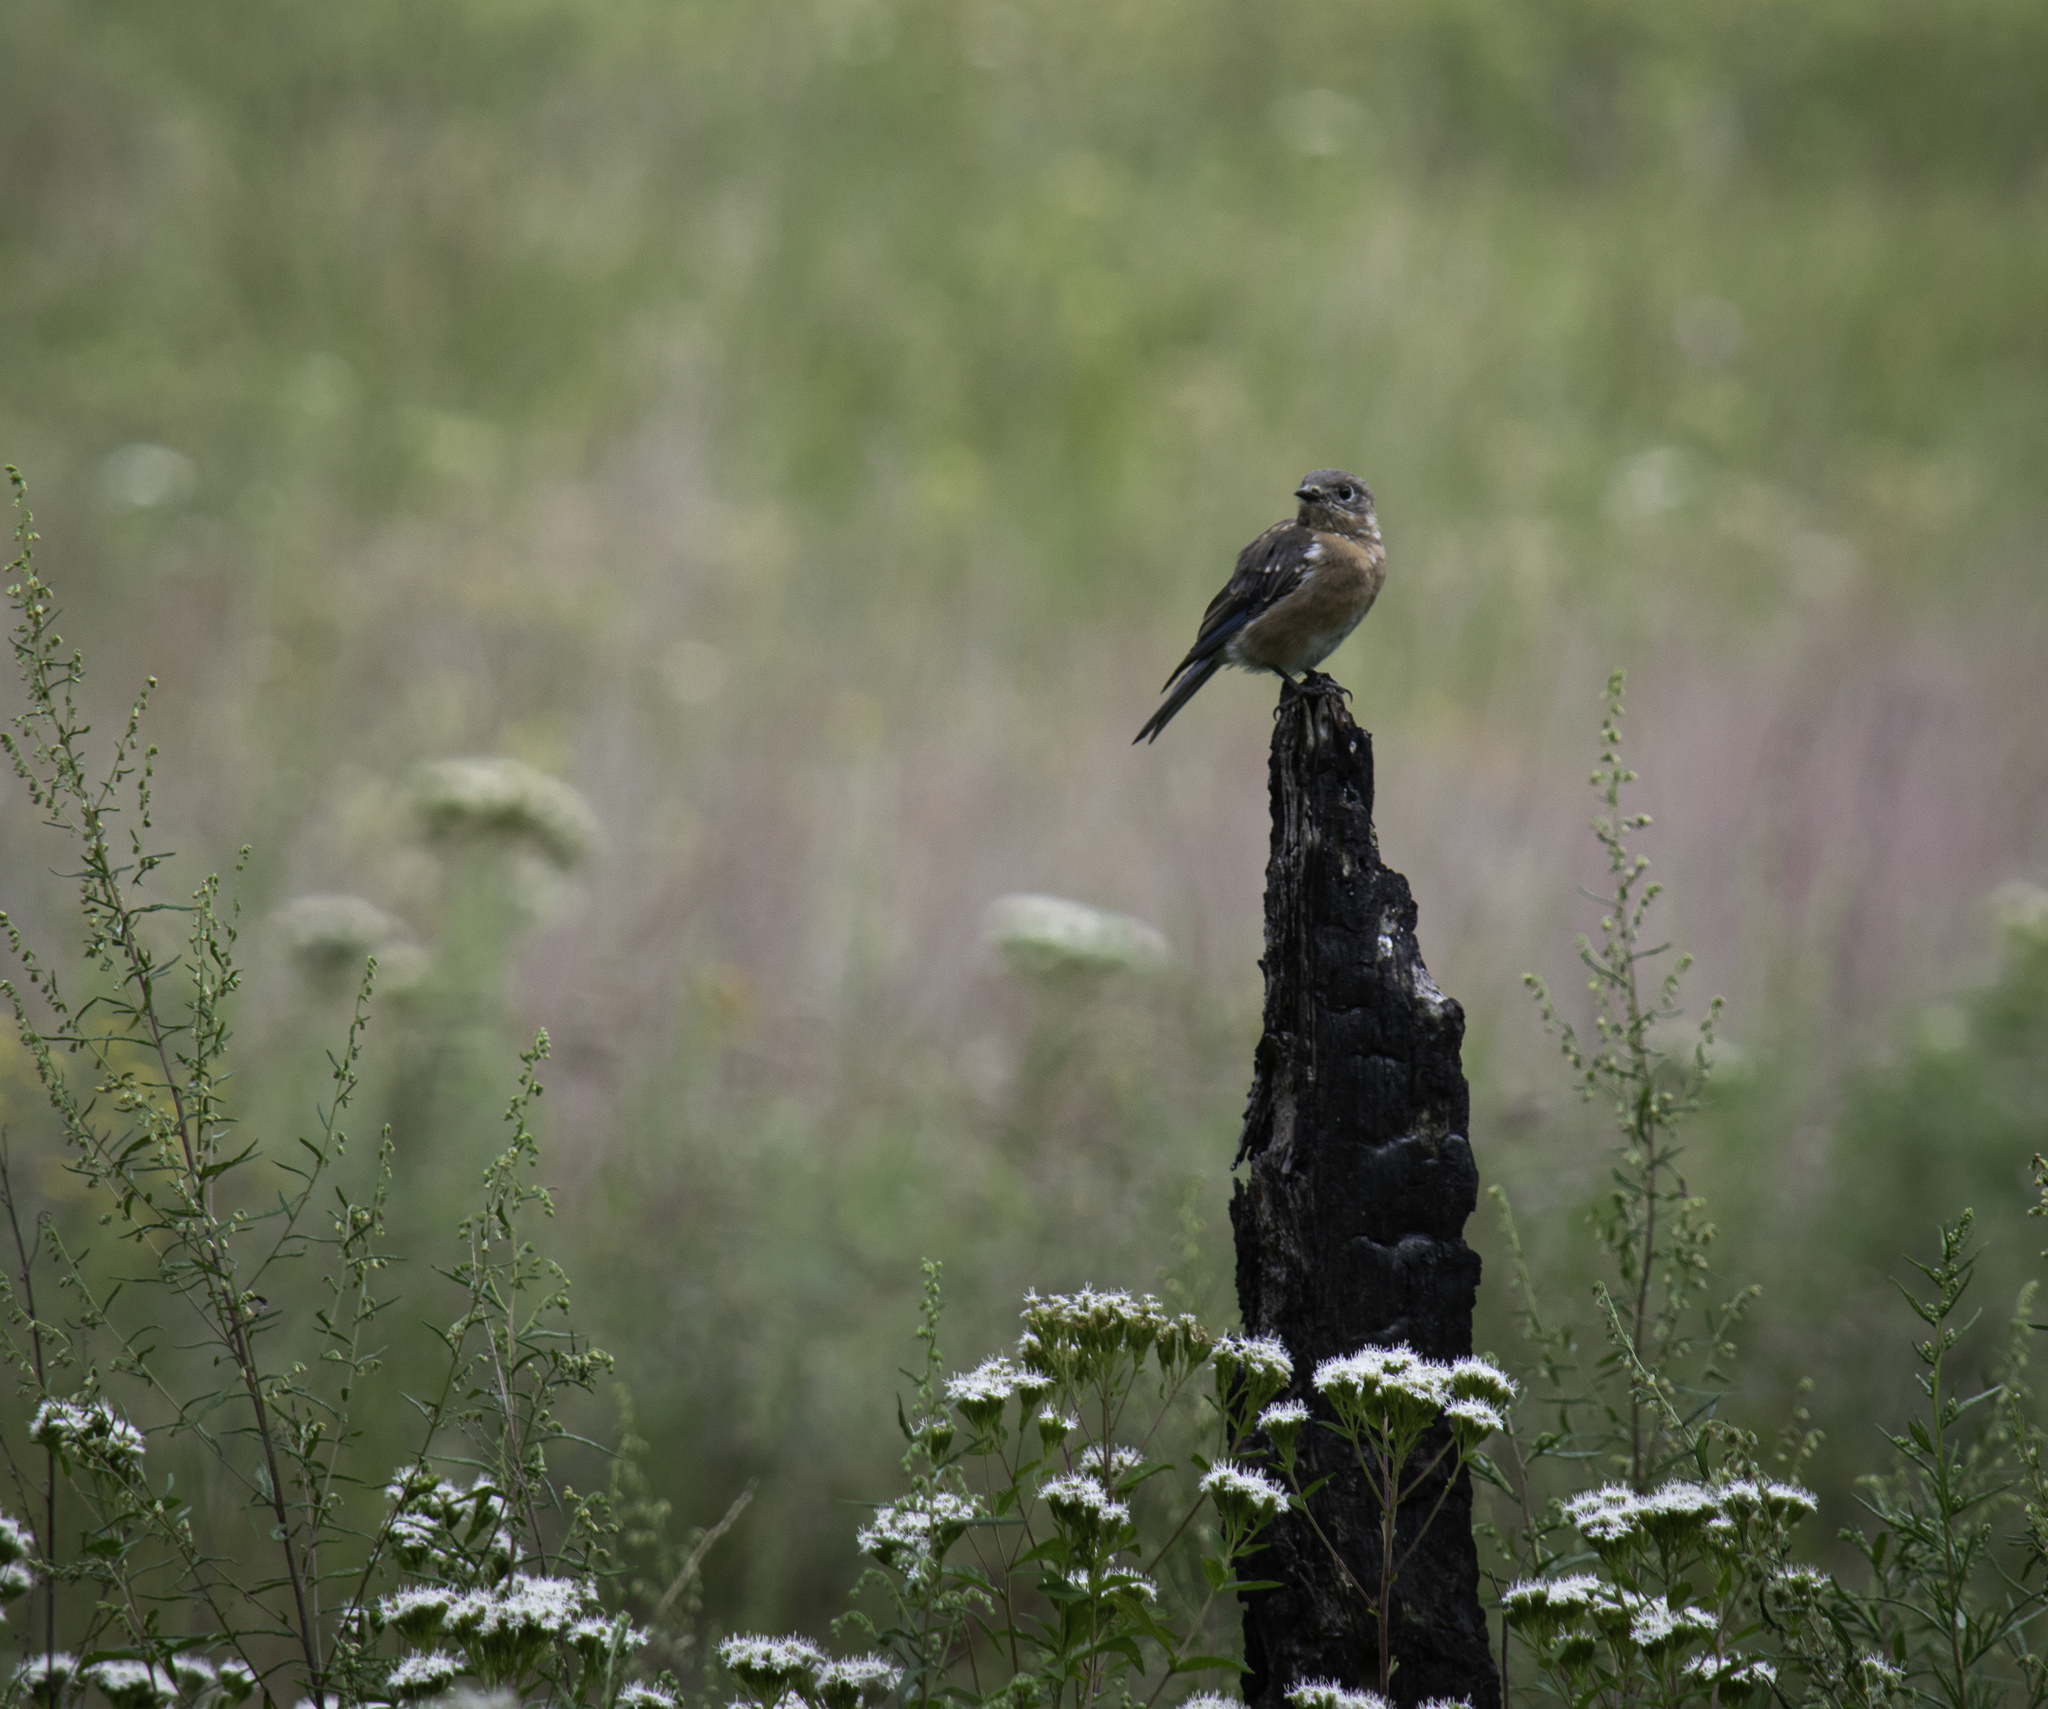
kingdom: Animalia
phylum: Chordata
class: Aves
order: Passeriformes
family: Turdidae
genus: Sialia
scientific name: Sialia sialis
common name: Eastern bluebird
